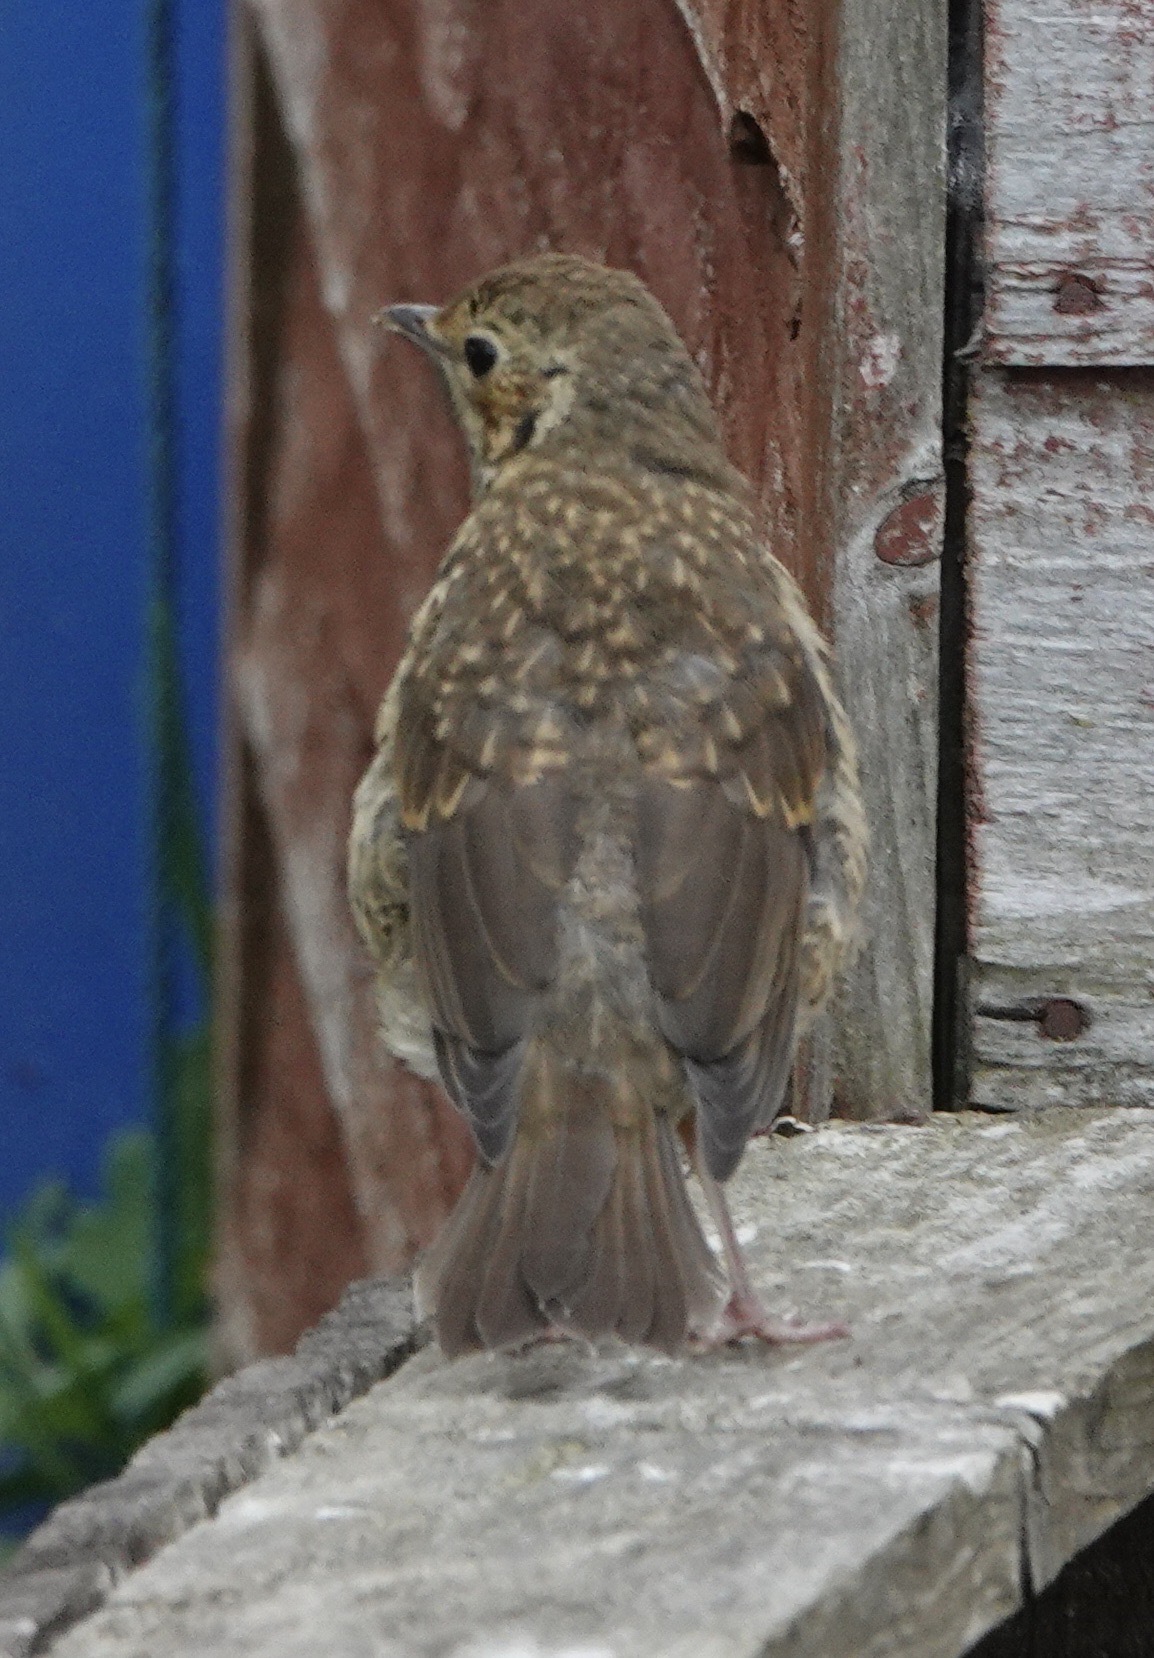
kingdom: Animalia
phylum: Chordata
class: Aves
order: Passeriformes
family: Turdidae
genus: Turdus
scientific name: Turdus philomelos
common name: Song thrush
